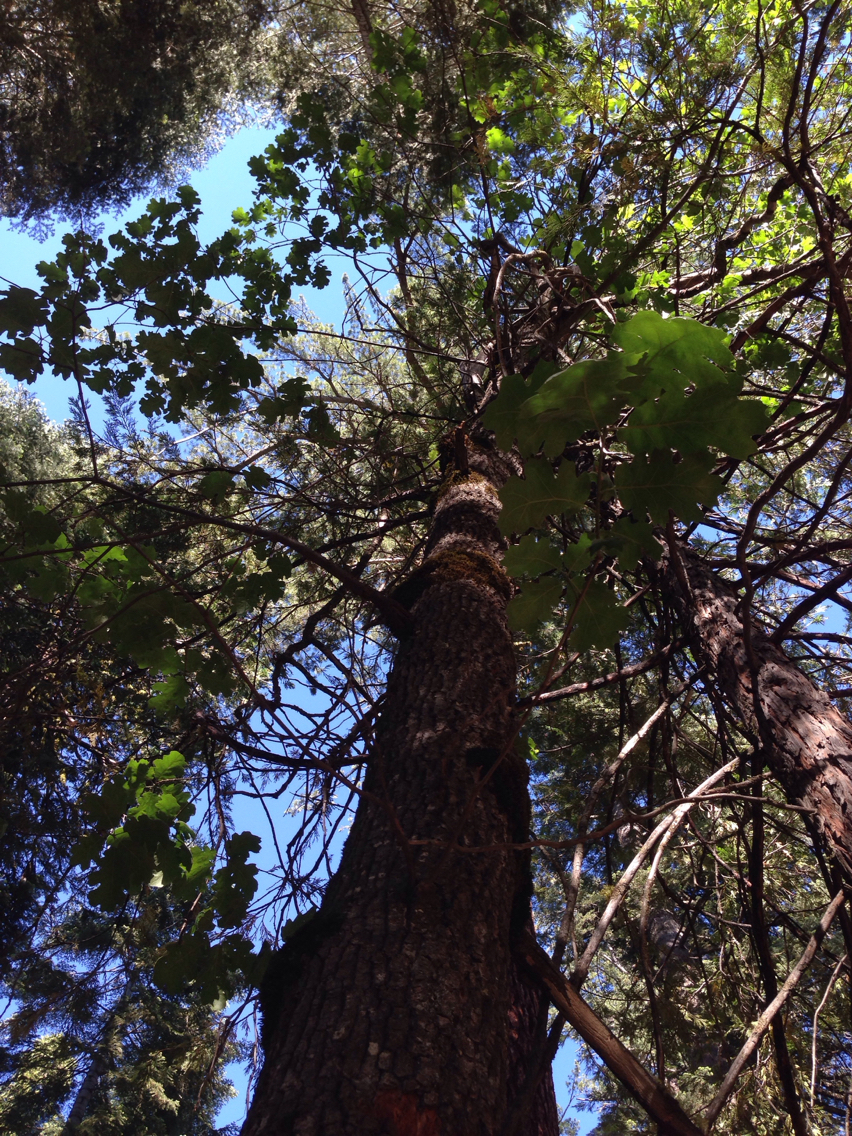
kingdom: Plantae
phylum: Tracheophyta
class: Magnoliopsida
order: Fagales
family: Fagaceae
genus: Quercus
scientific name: Quercus kelloggii
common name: California black oak
